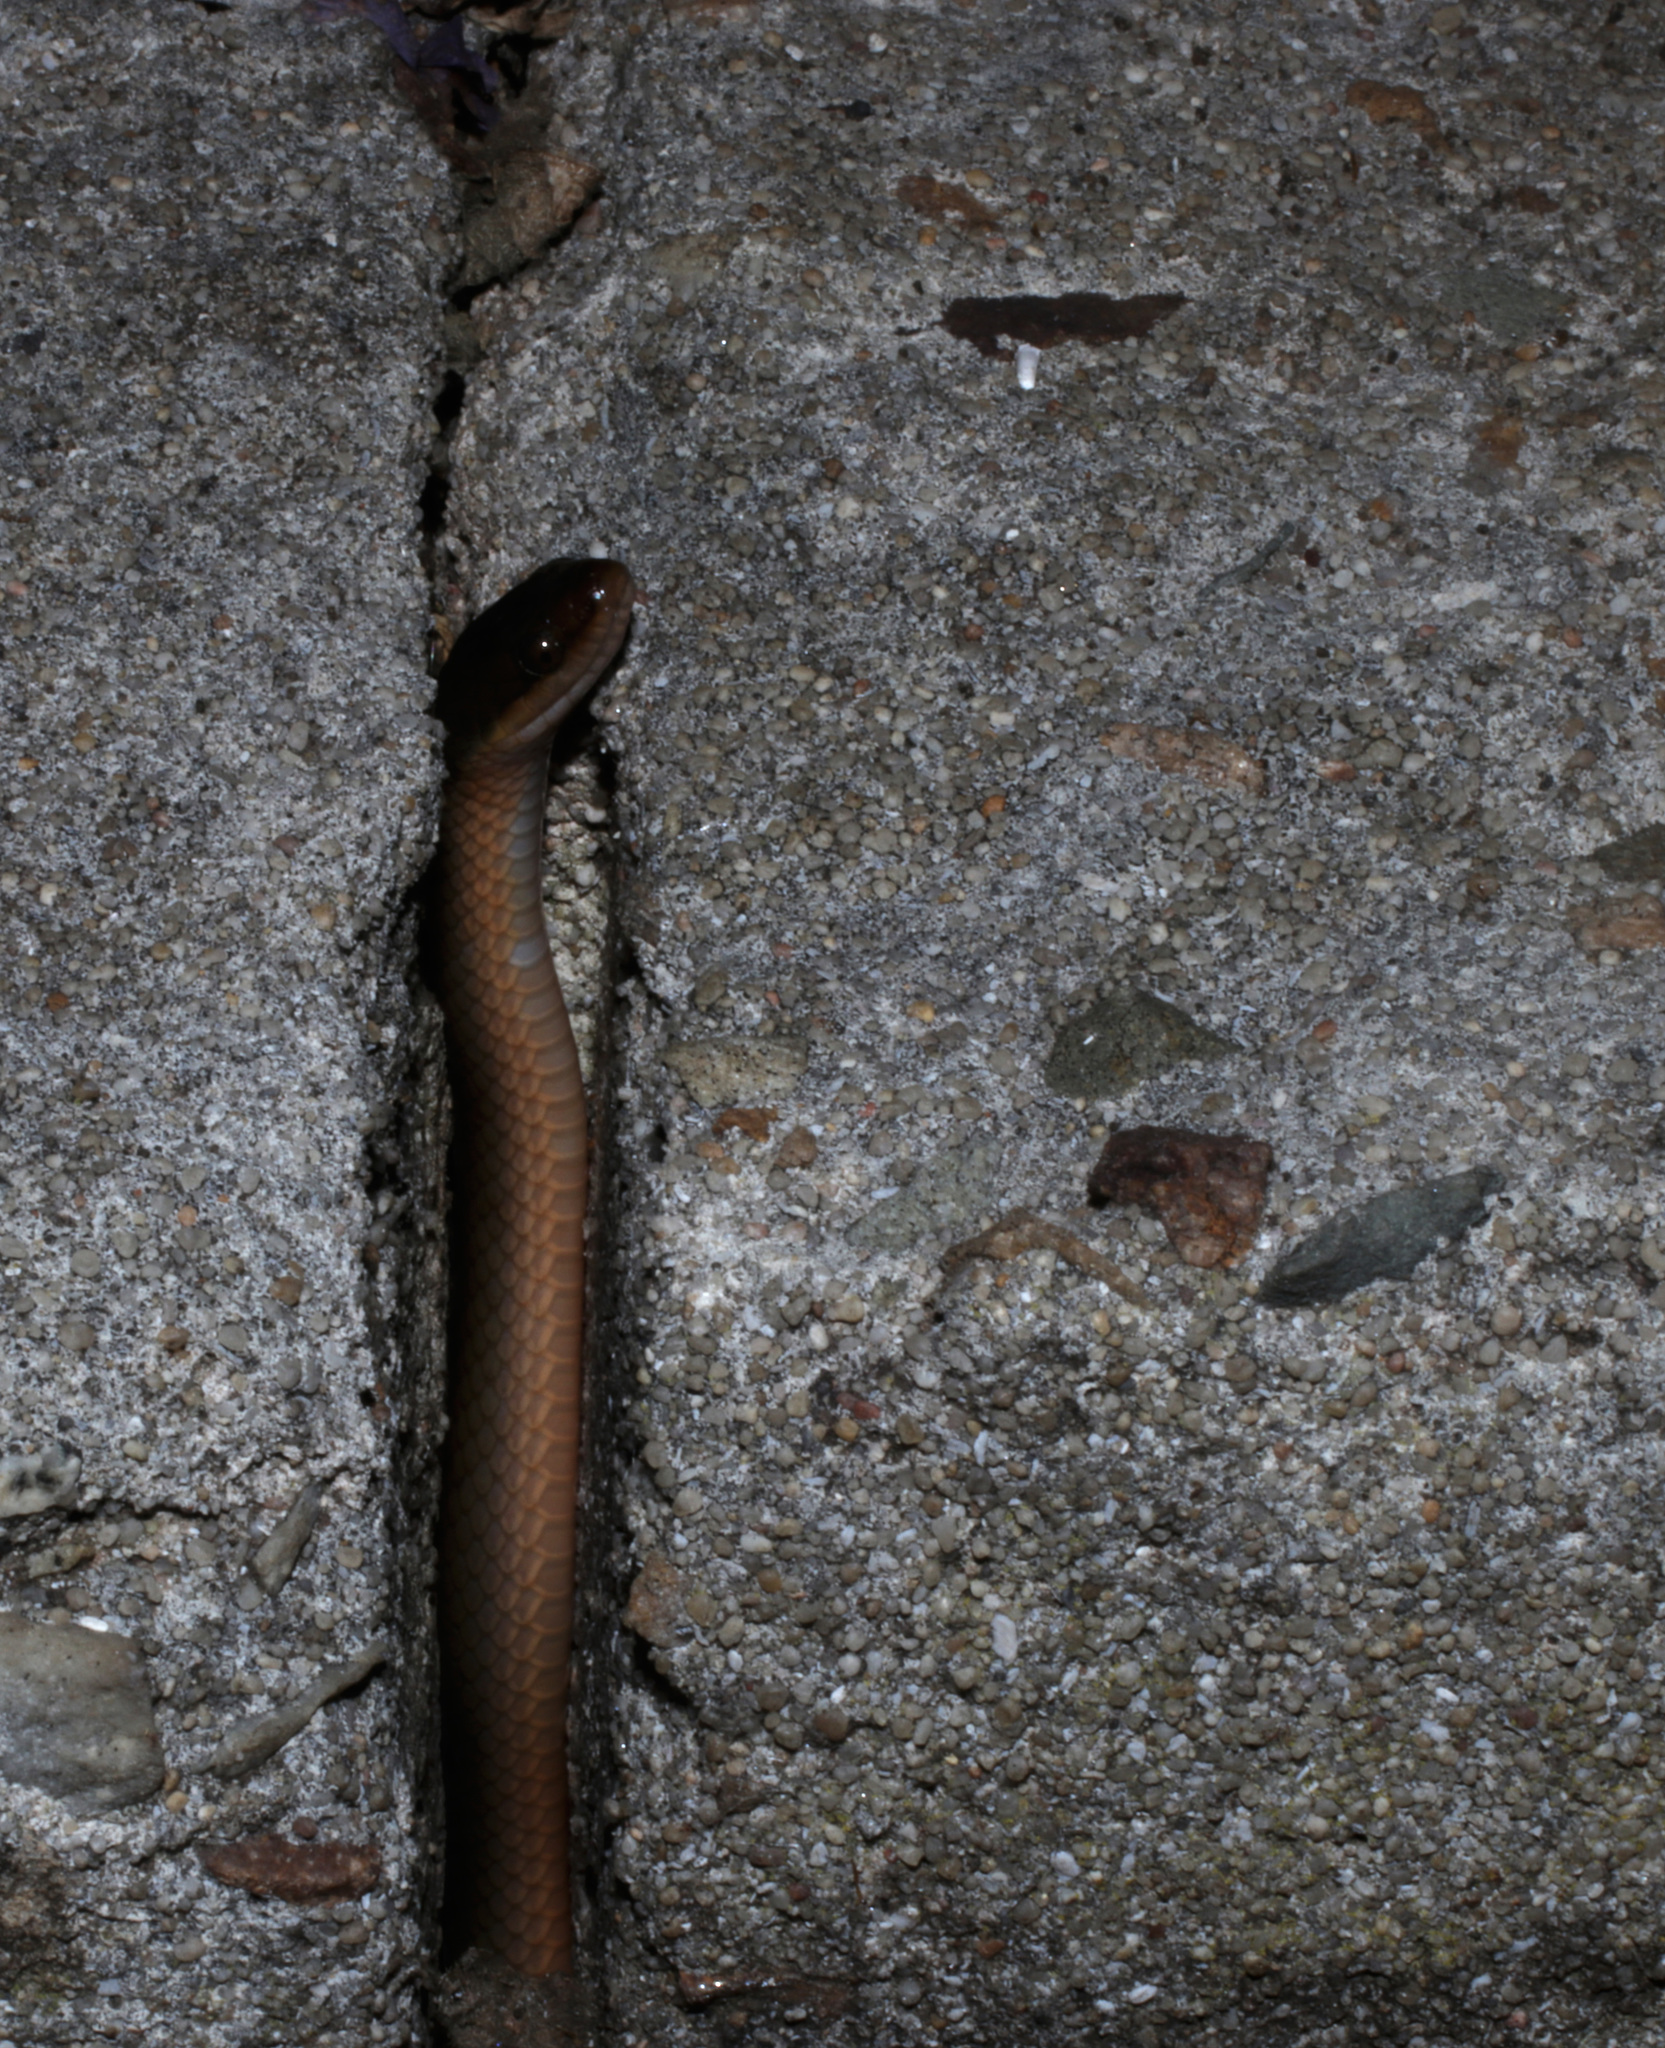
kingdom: Animalia
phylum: Chordata
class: Squamata
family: Lamprophiidae
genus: Lycodonomorphus
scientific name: Lycodonomorphus rufulus
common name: Brown water snake
